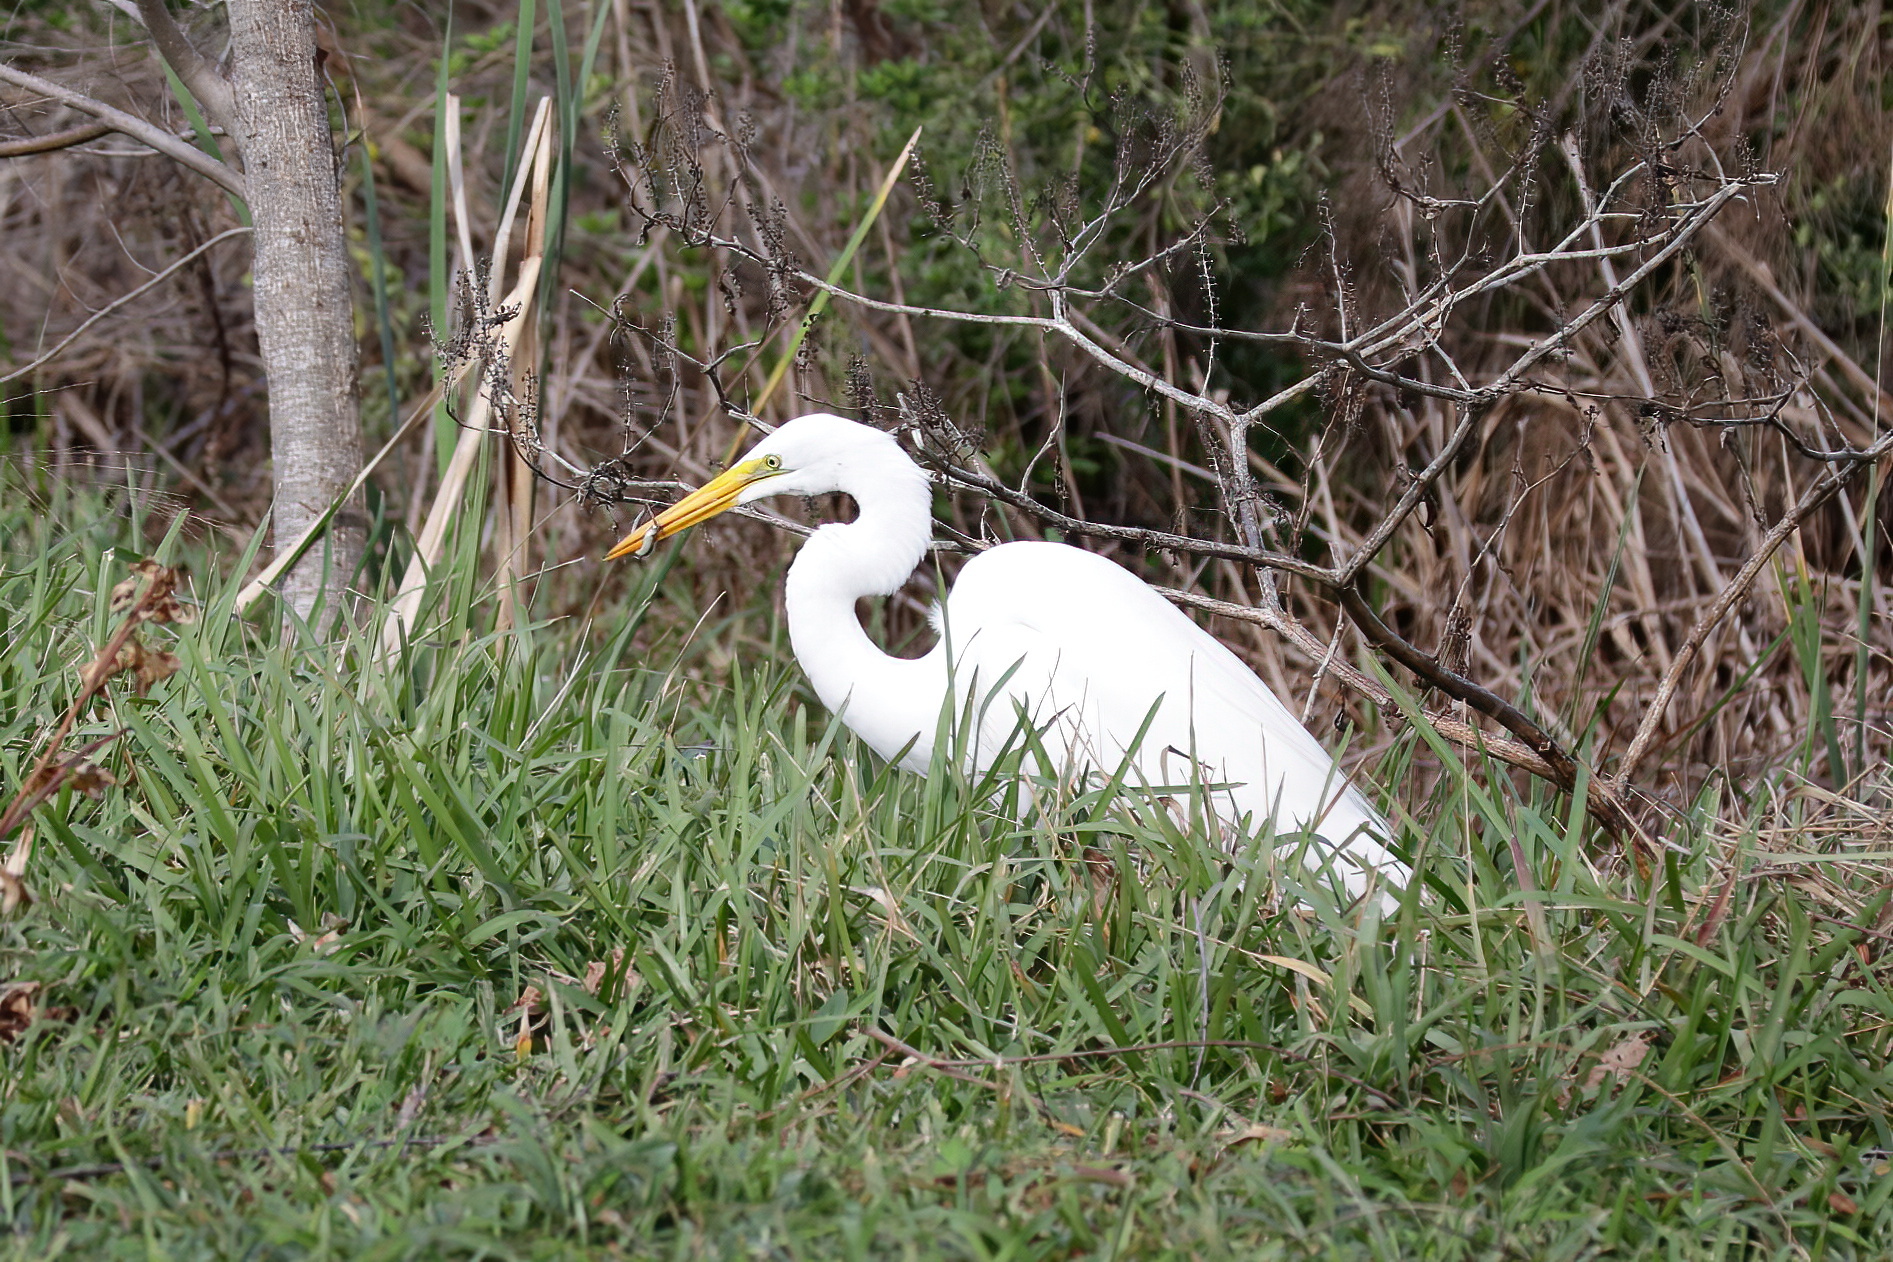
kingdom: Animalia
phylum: Chordata
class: Aves
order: Pelecaniformes
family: Ardeidae
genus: Ardea
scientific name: Ardea alba
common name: Great egret
